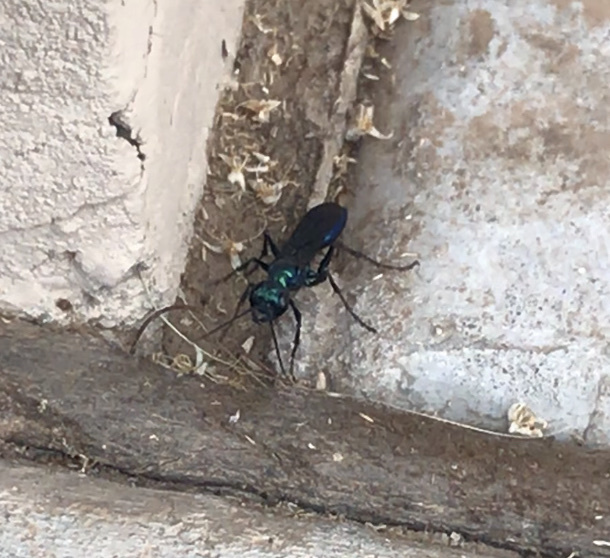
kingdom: Animalia
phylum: Arthropoda
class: Insecta
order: Hymenoptera
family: Sphecidae
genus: Chlorion
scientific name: Chlorion
